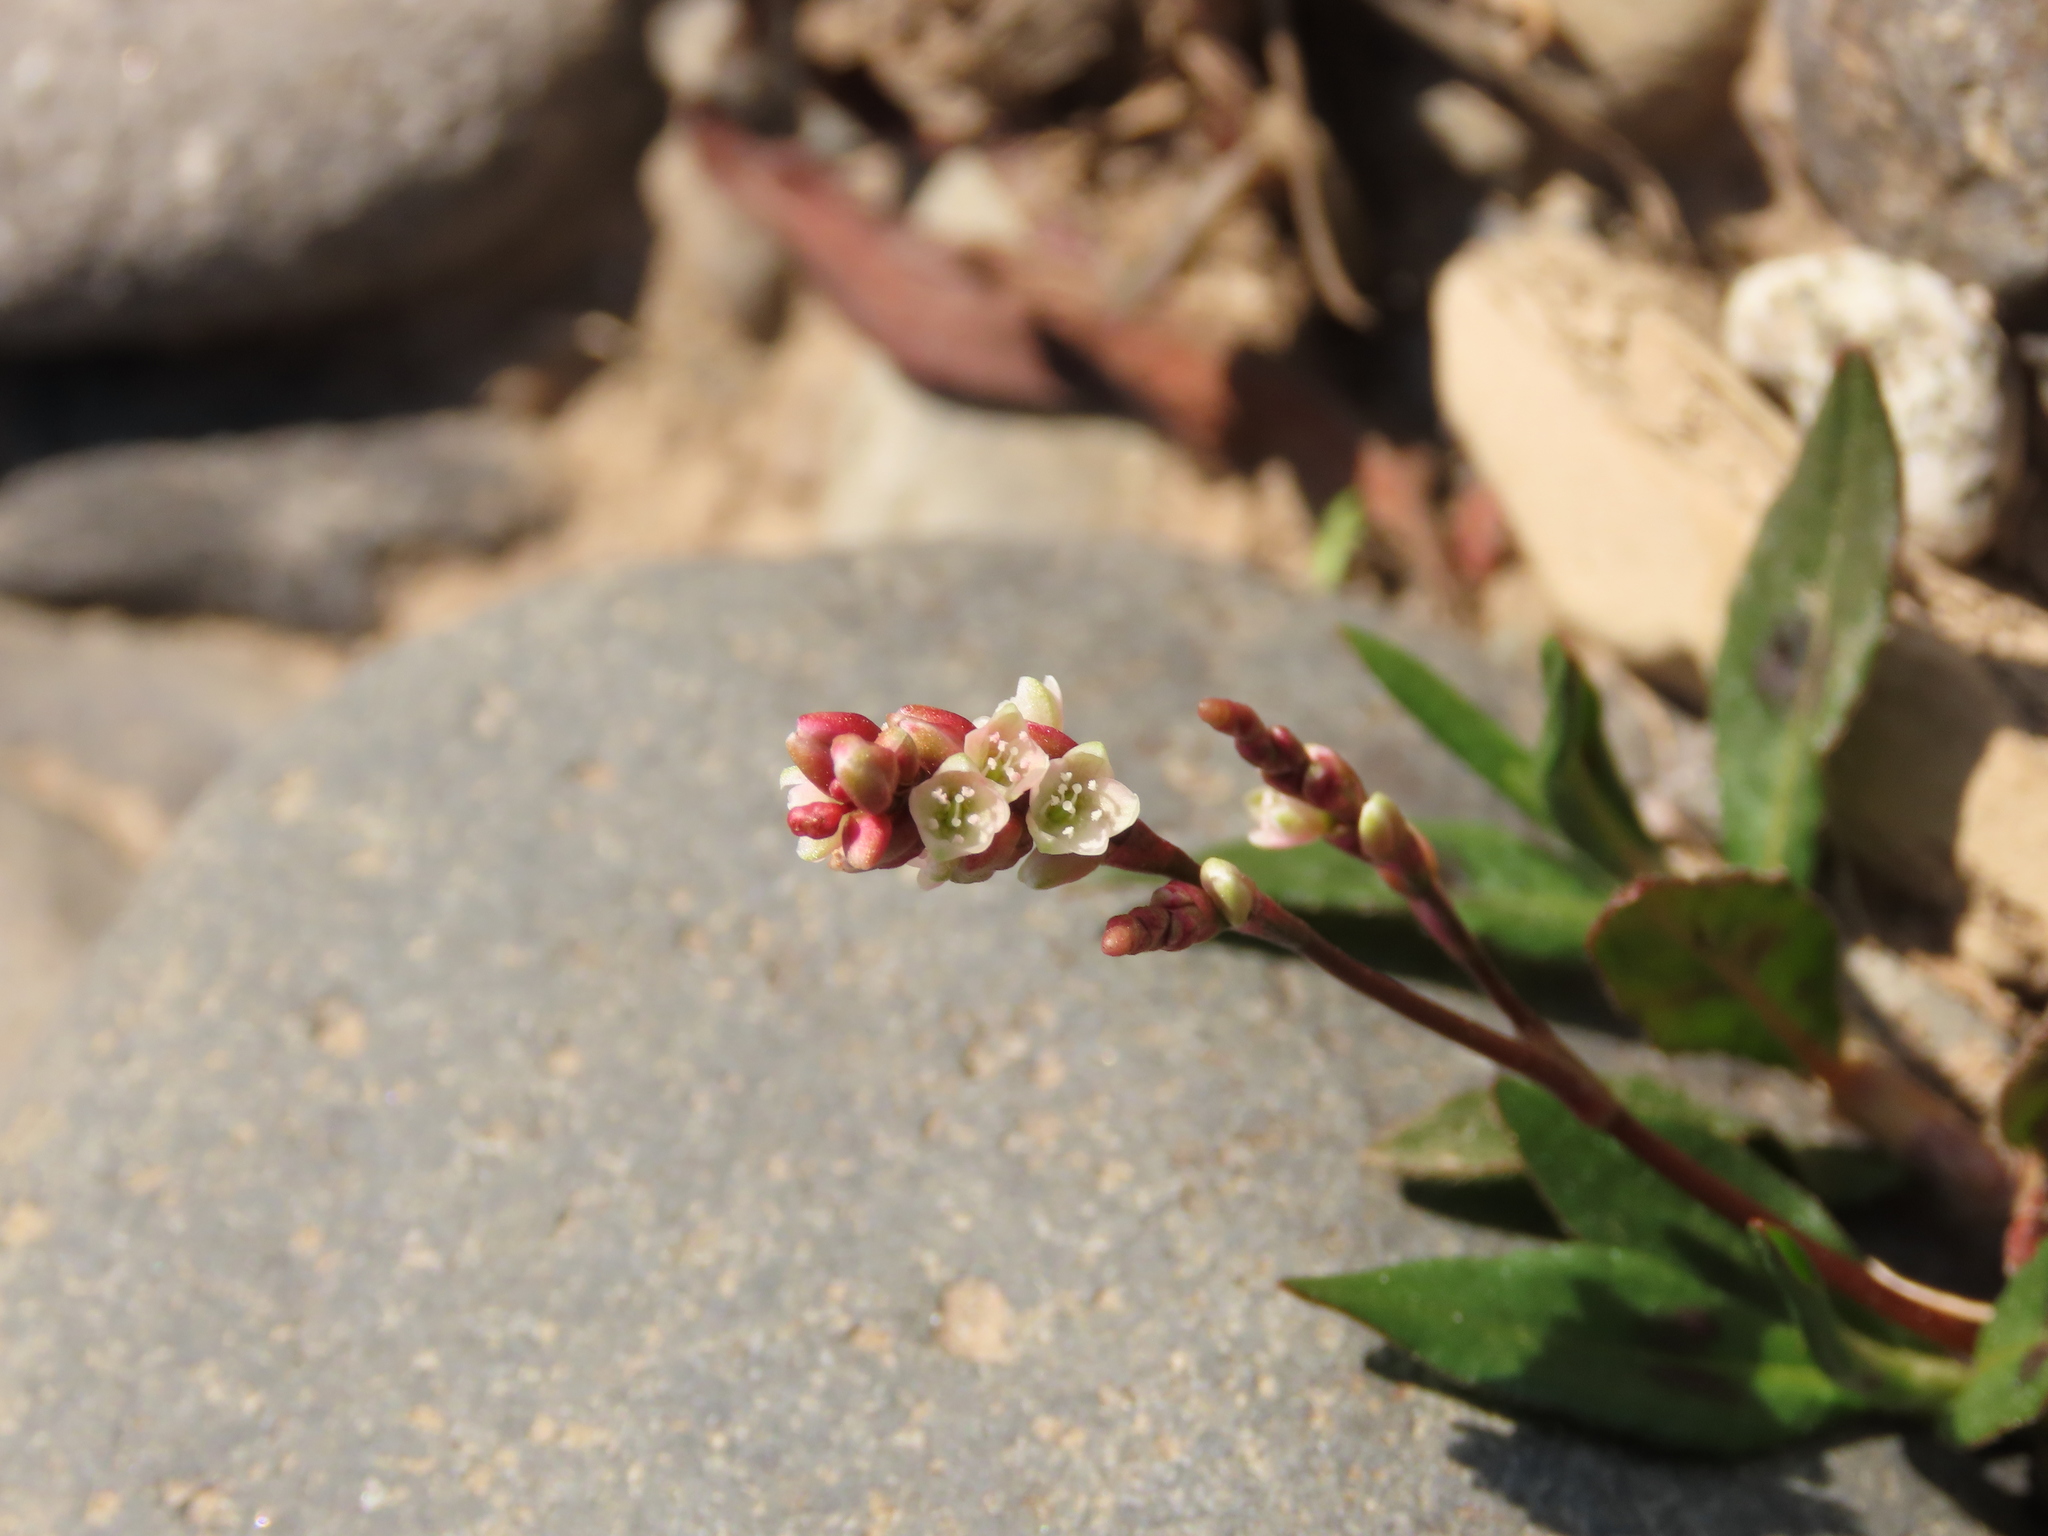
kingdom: Plantae
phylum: Tracheophyta
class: Magnoliopsida
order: Caryophyllales
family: Polygonaceae
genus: Persicaria
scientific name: Persicaria maculosa
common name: Redshank
